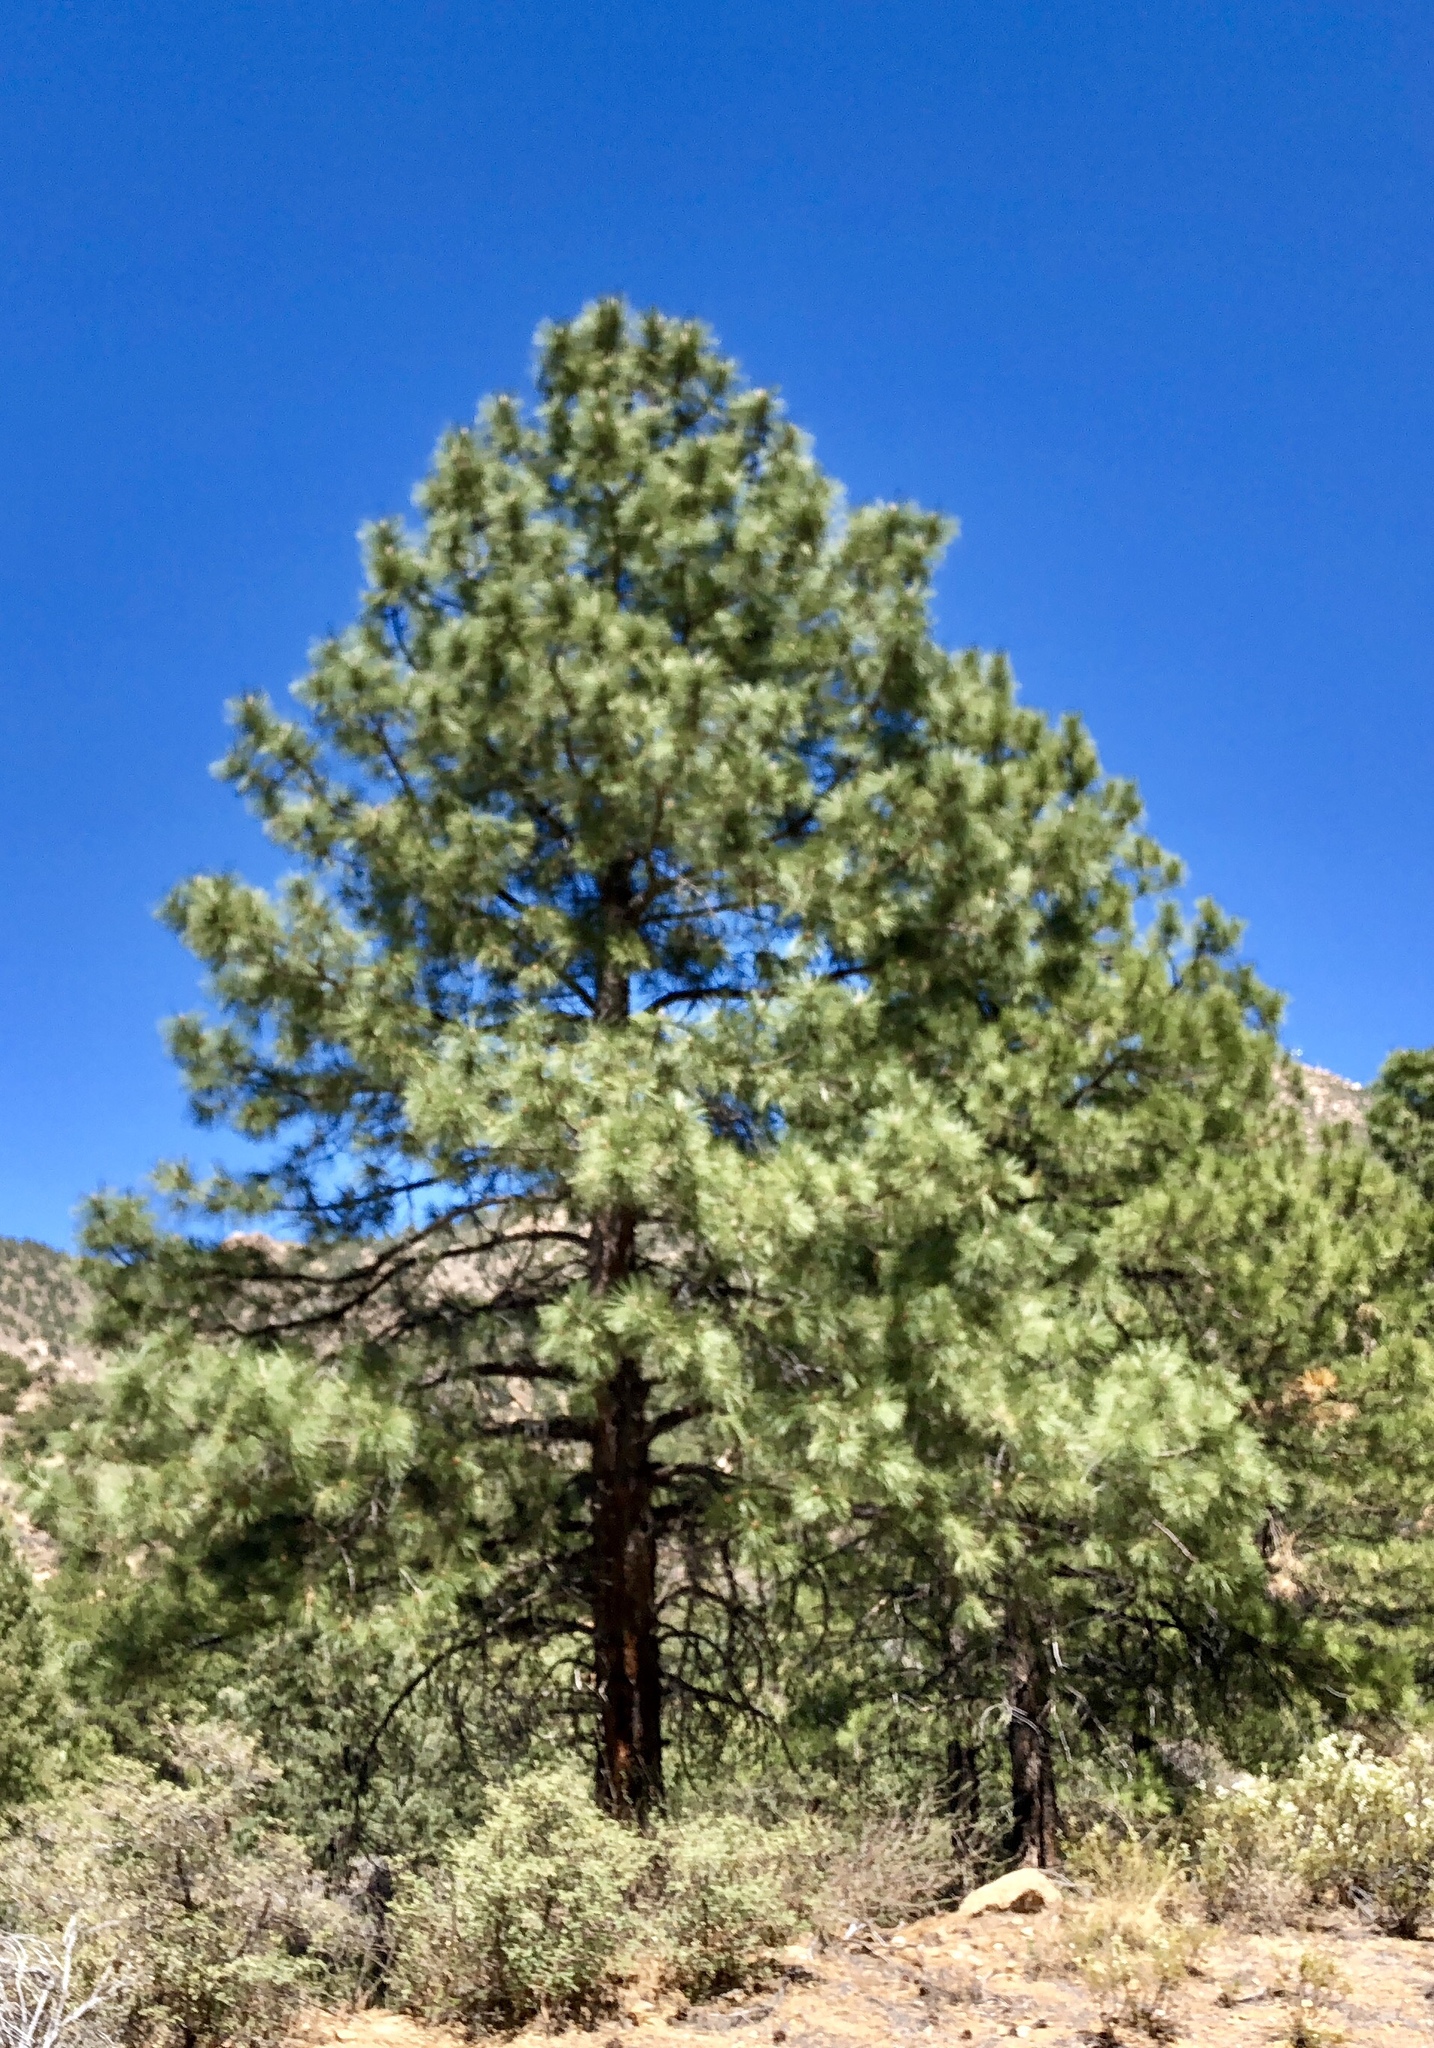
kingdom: Plantae
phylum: Tracheophyta
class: Pinopsida
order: Pinales
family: Pinaceae
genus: Pinus
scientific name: Pinus ponderosa
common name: Western yellow-pine
